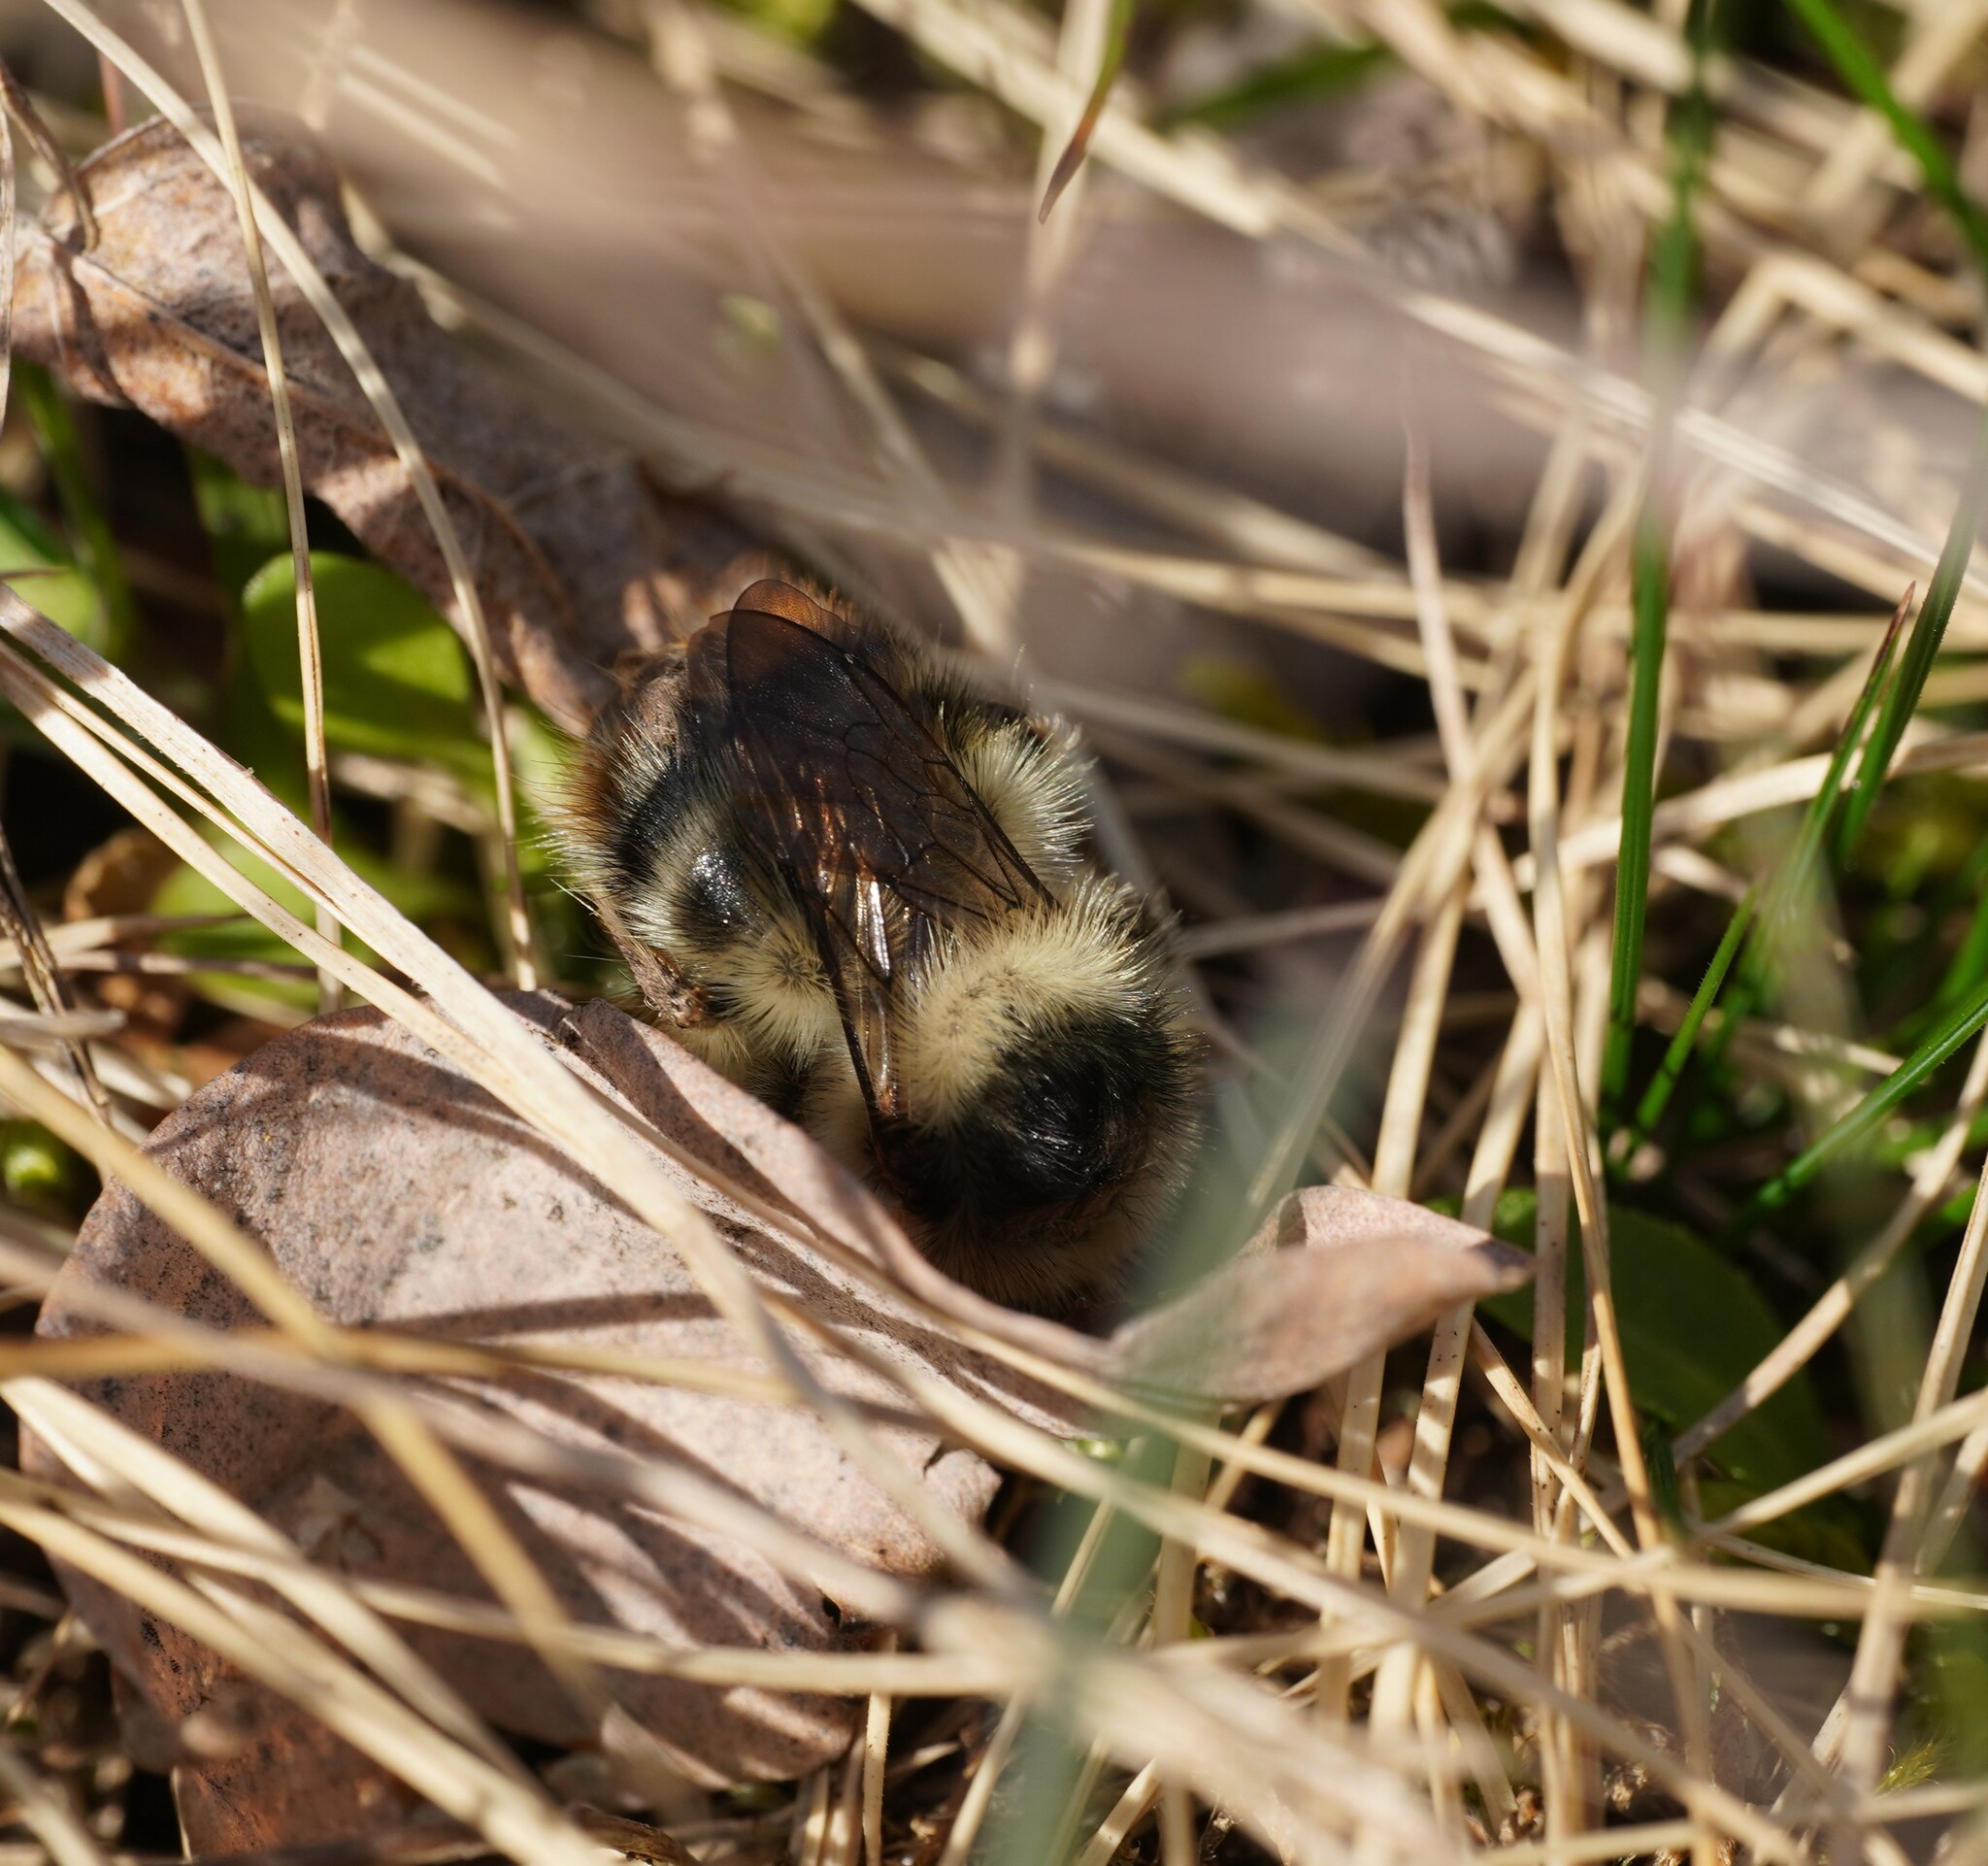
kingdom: Animalia
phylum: Arthropoda
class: Insecta
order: Hymenoptera
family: Apidae
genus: Bombus
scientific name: Bombus sylvarum
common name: Shrill carder bee
